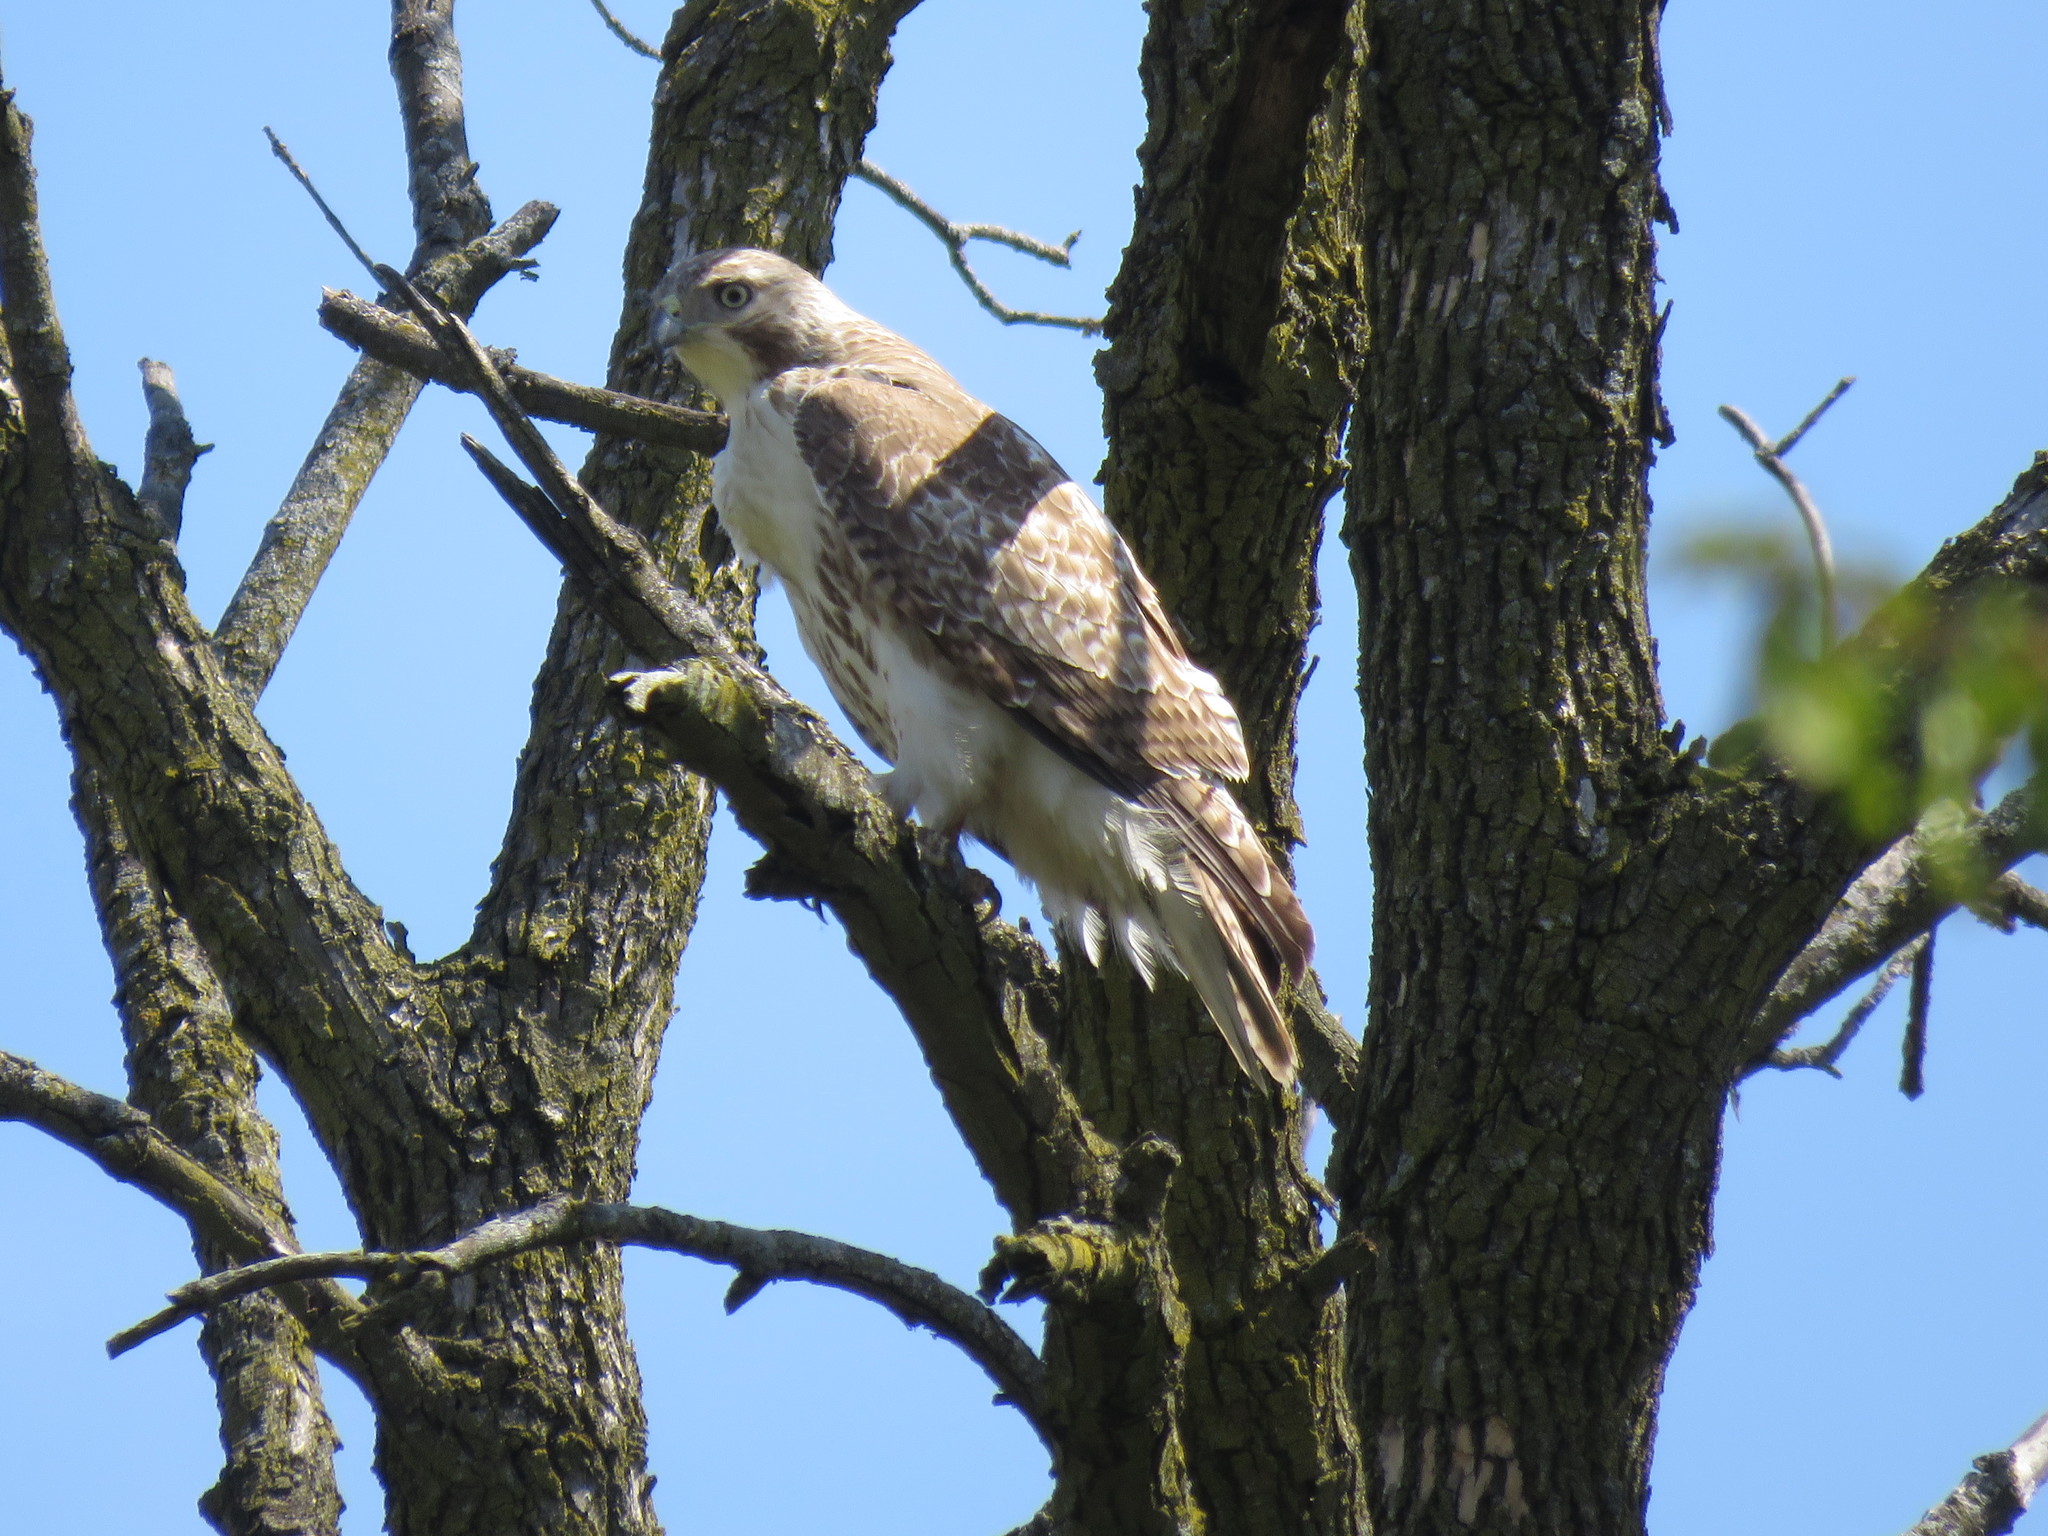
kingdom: Animalia
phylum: Chordata
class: Aves
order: Accipitriformes
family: Accipitridae
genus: Buteo
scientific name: Buteo jamaicensis
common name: Red-tailed hawk
